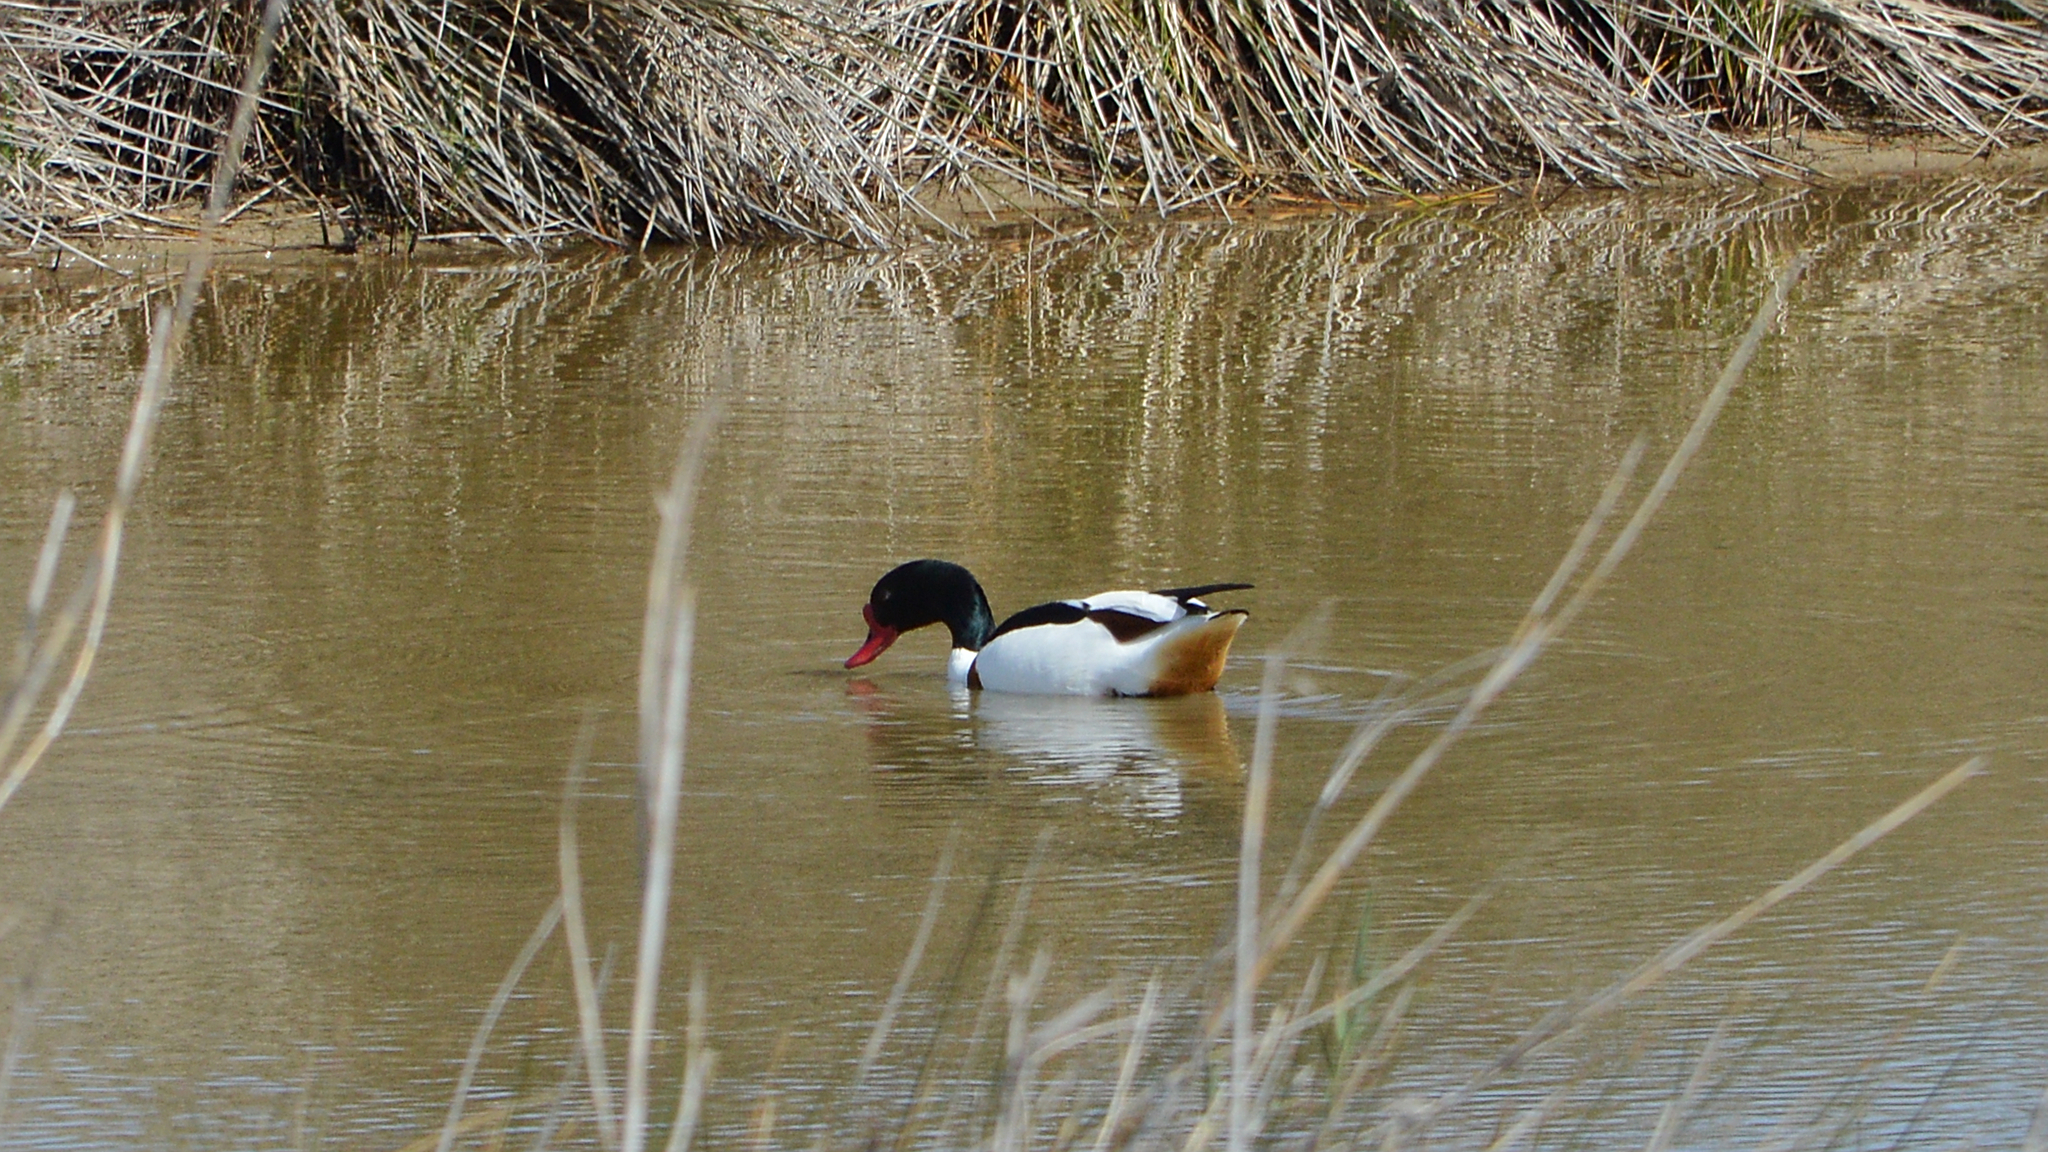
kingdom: Animalia
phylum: Chordata
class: Aves
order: Anseriformes
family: Anatidae
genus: Tadorna
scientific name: Tadorna tadorna
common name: Common shelduck
